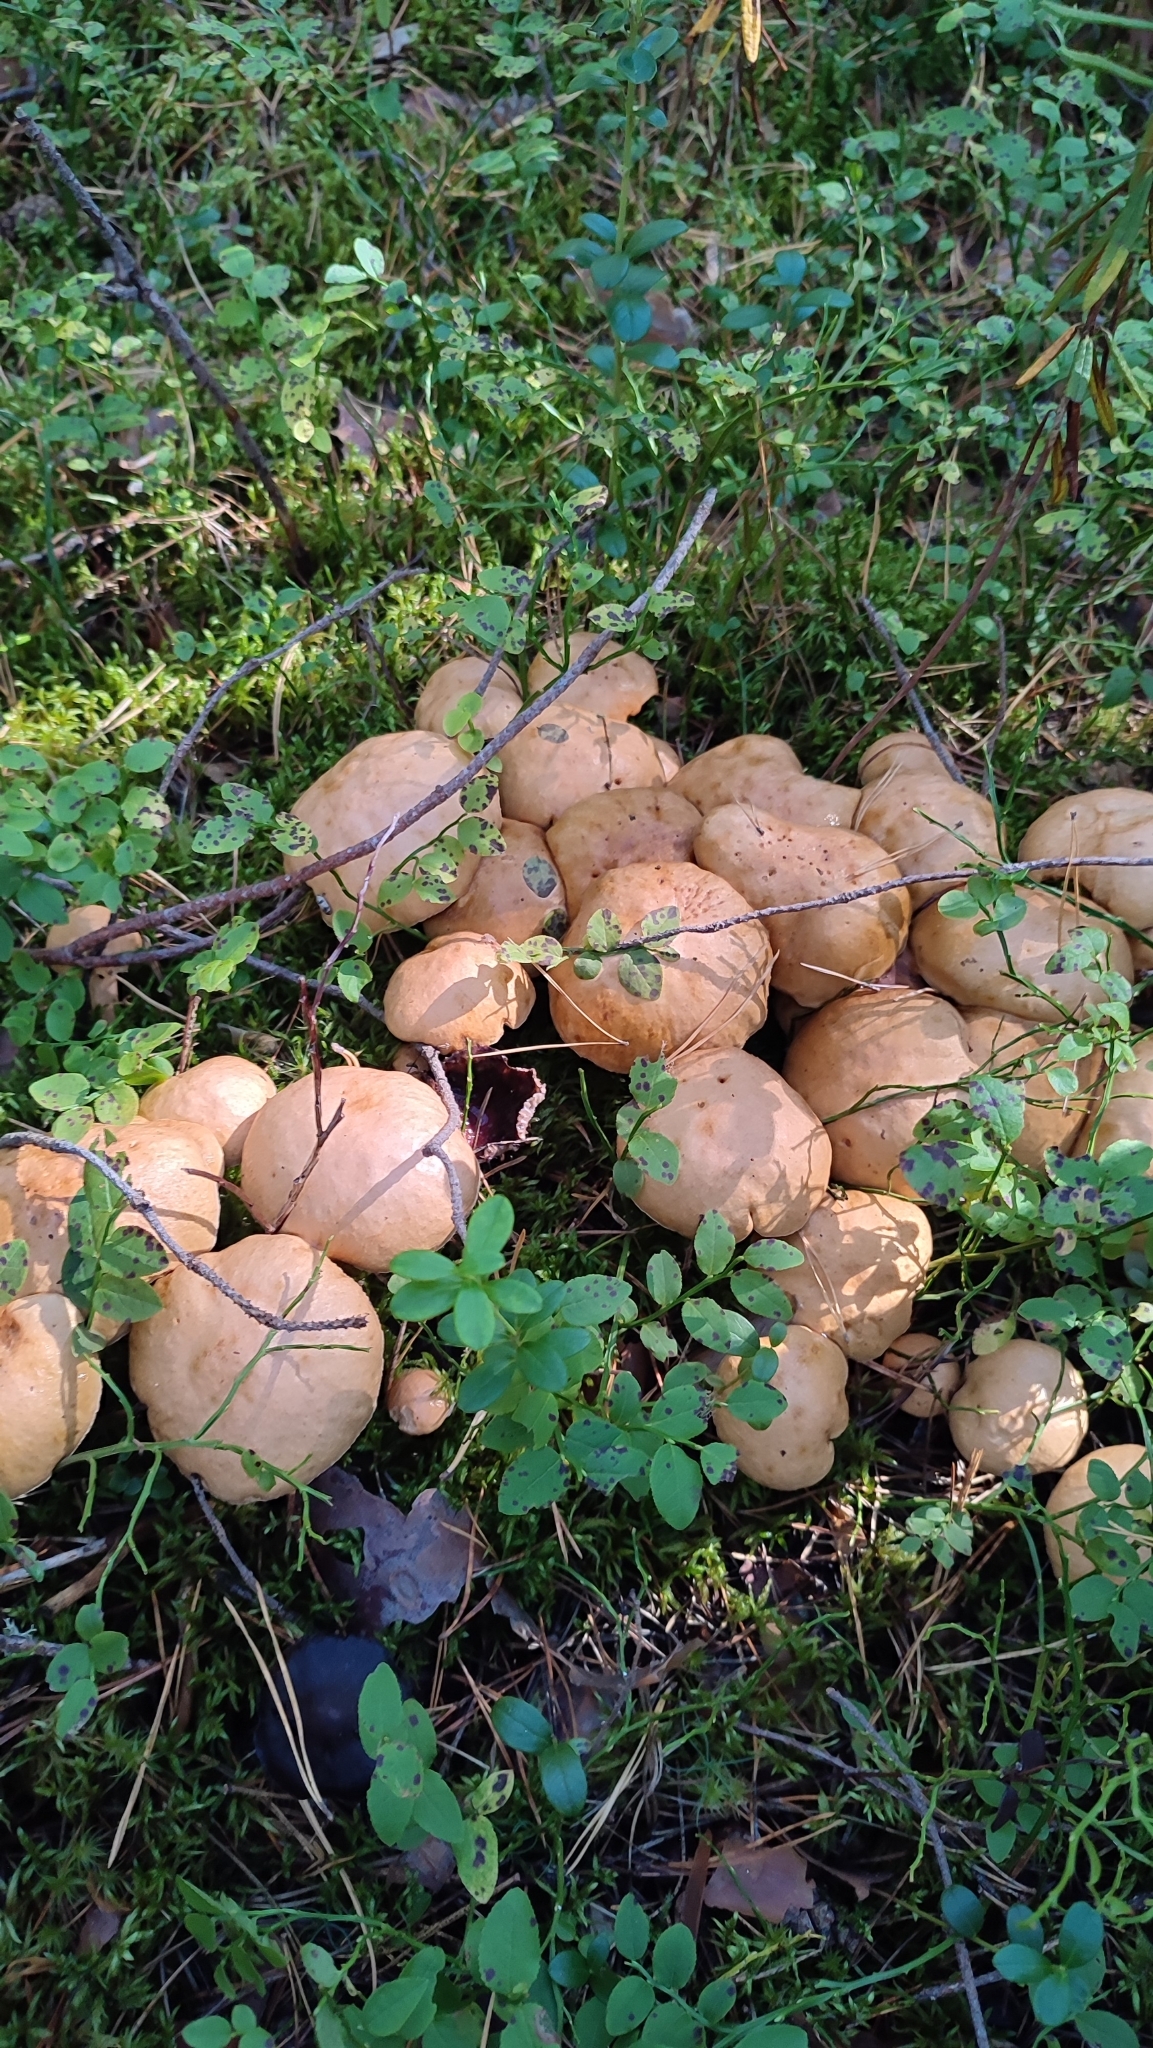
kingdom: Fungi
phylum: Basidiomycota
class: Agaricomycetes
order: Boletales
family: Suillaceae
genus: Suillus
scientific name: Suillus bovinus
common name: Bovine bolete
